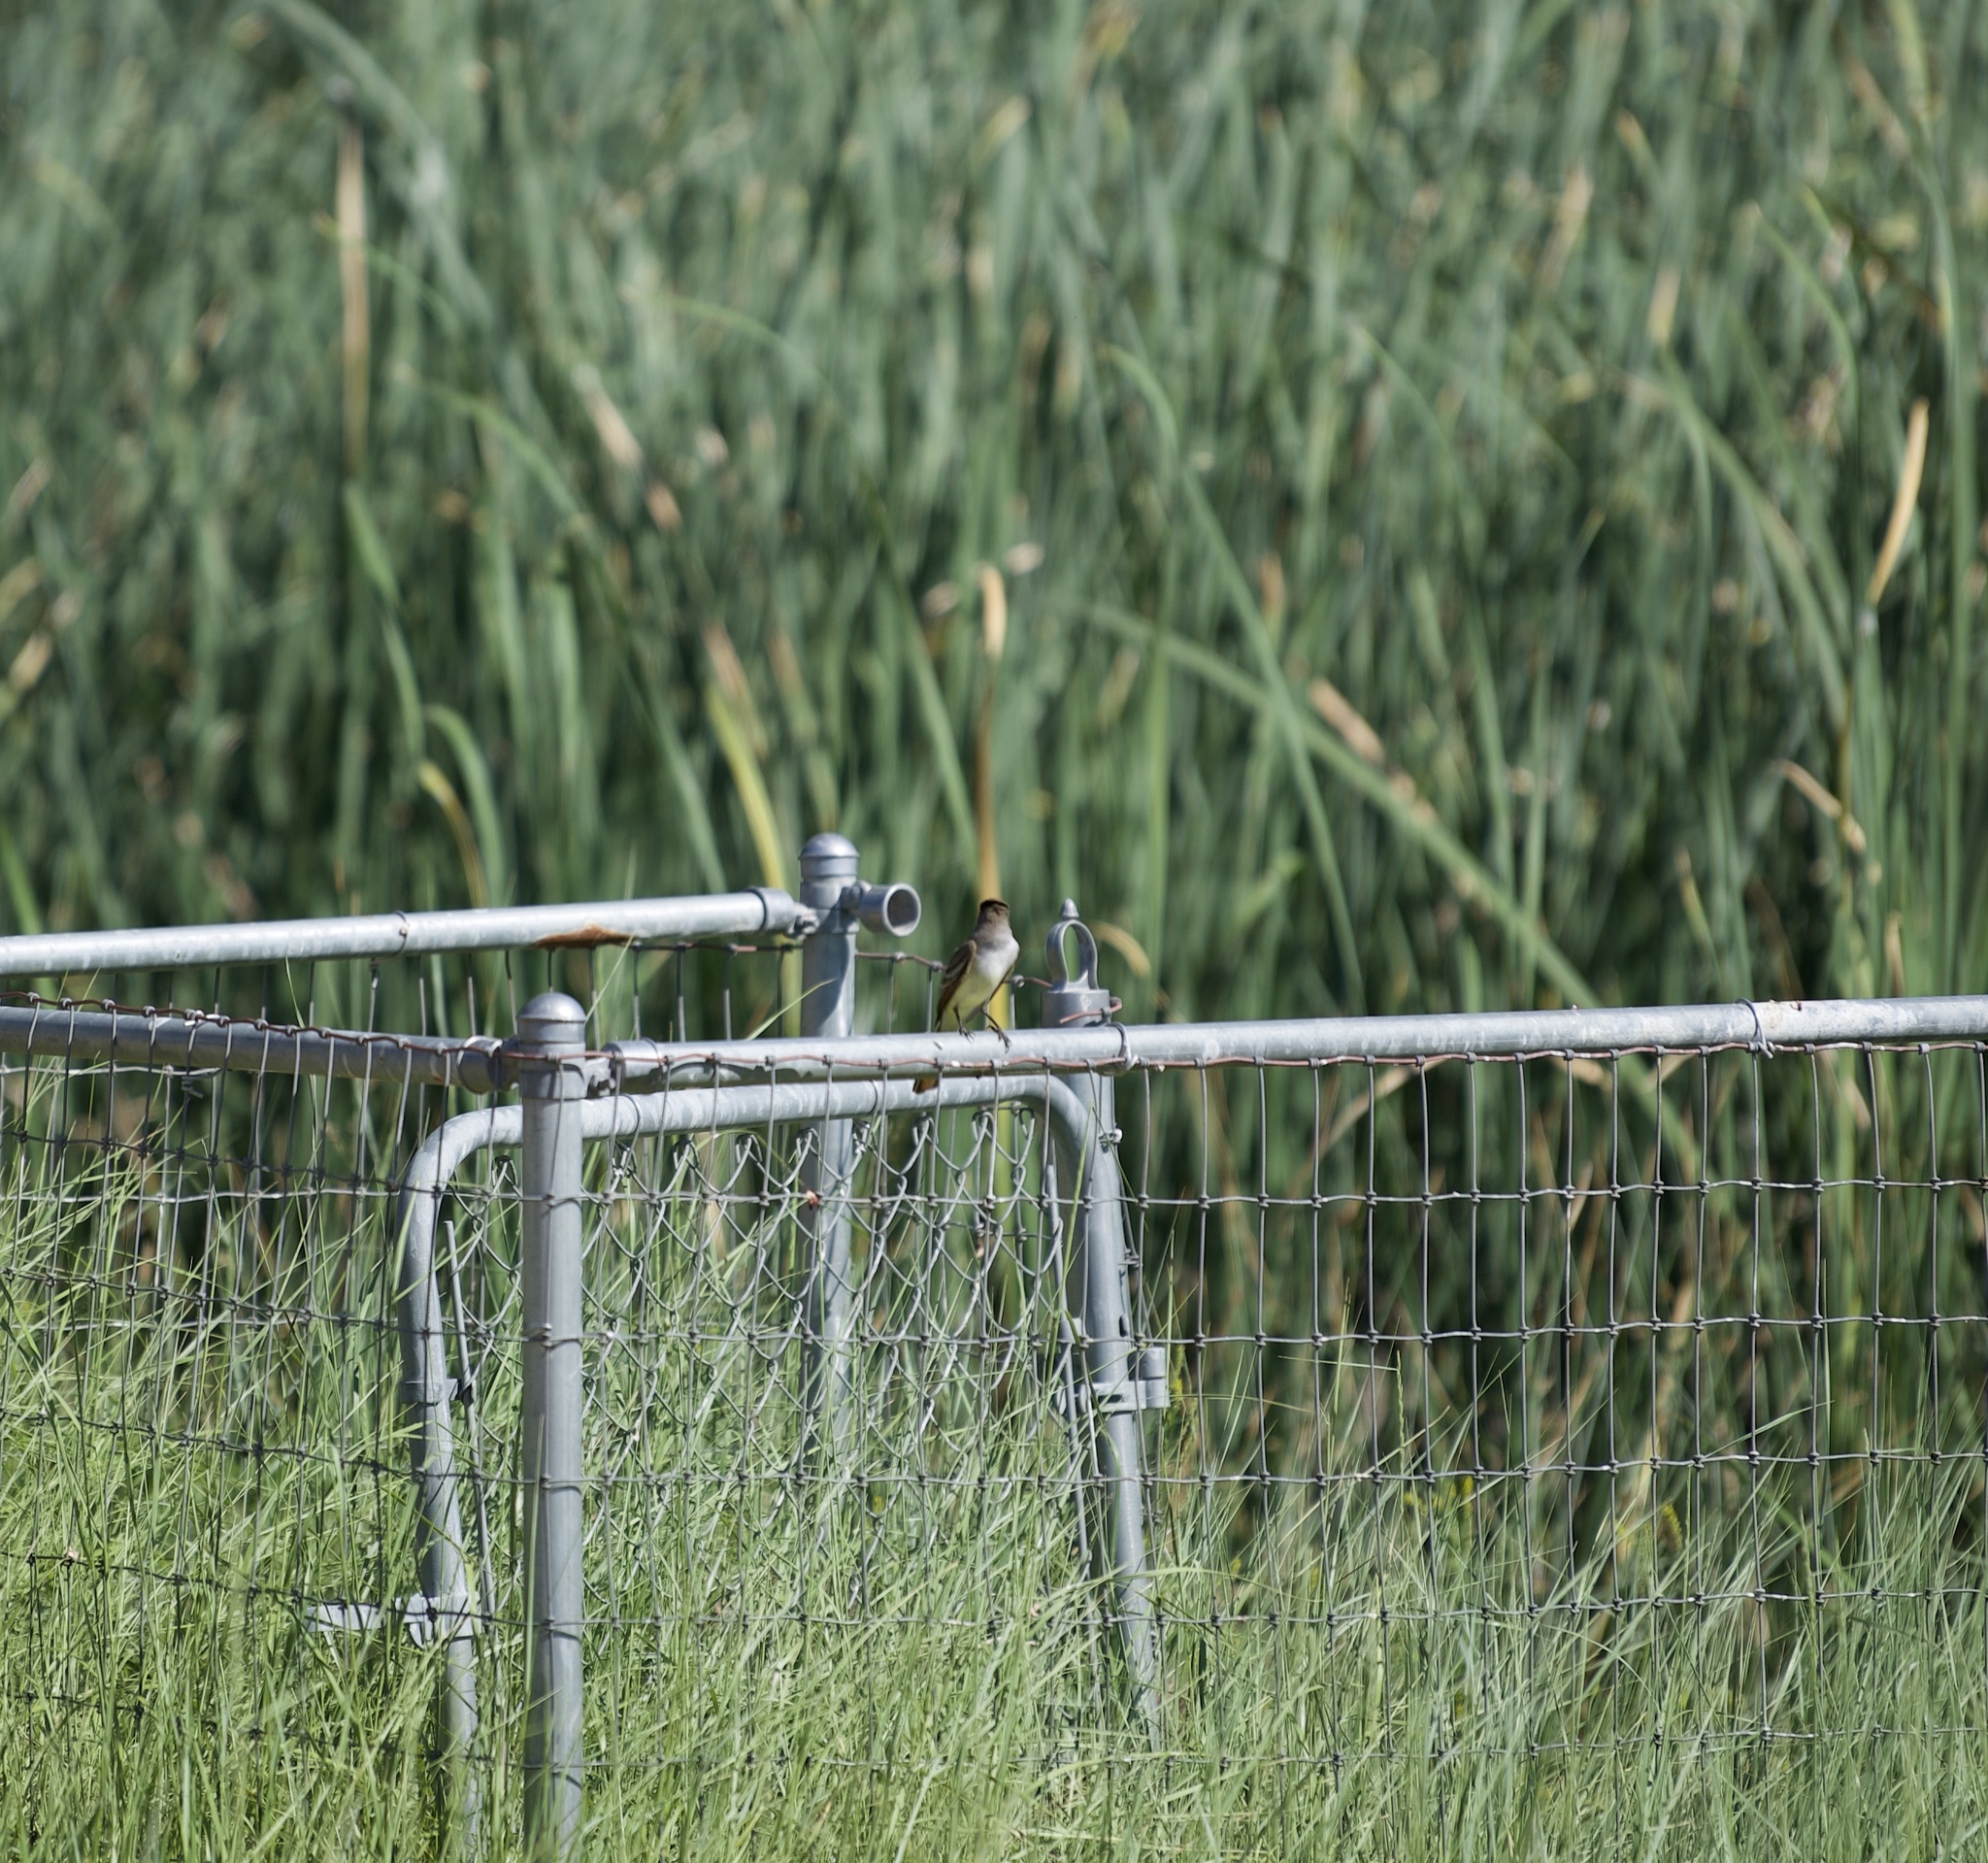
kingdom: Animalia
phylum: Chordata
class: Aves
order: Passeriformes
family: Tyrannidae
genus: Myiarchus
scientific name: Myiarchus cinerascens
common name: Ash-throated flycatcher
